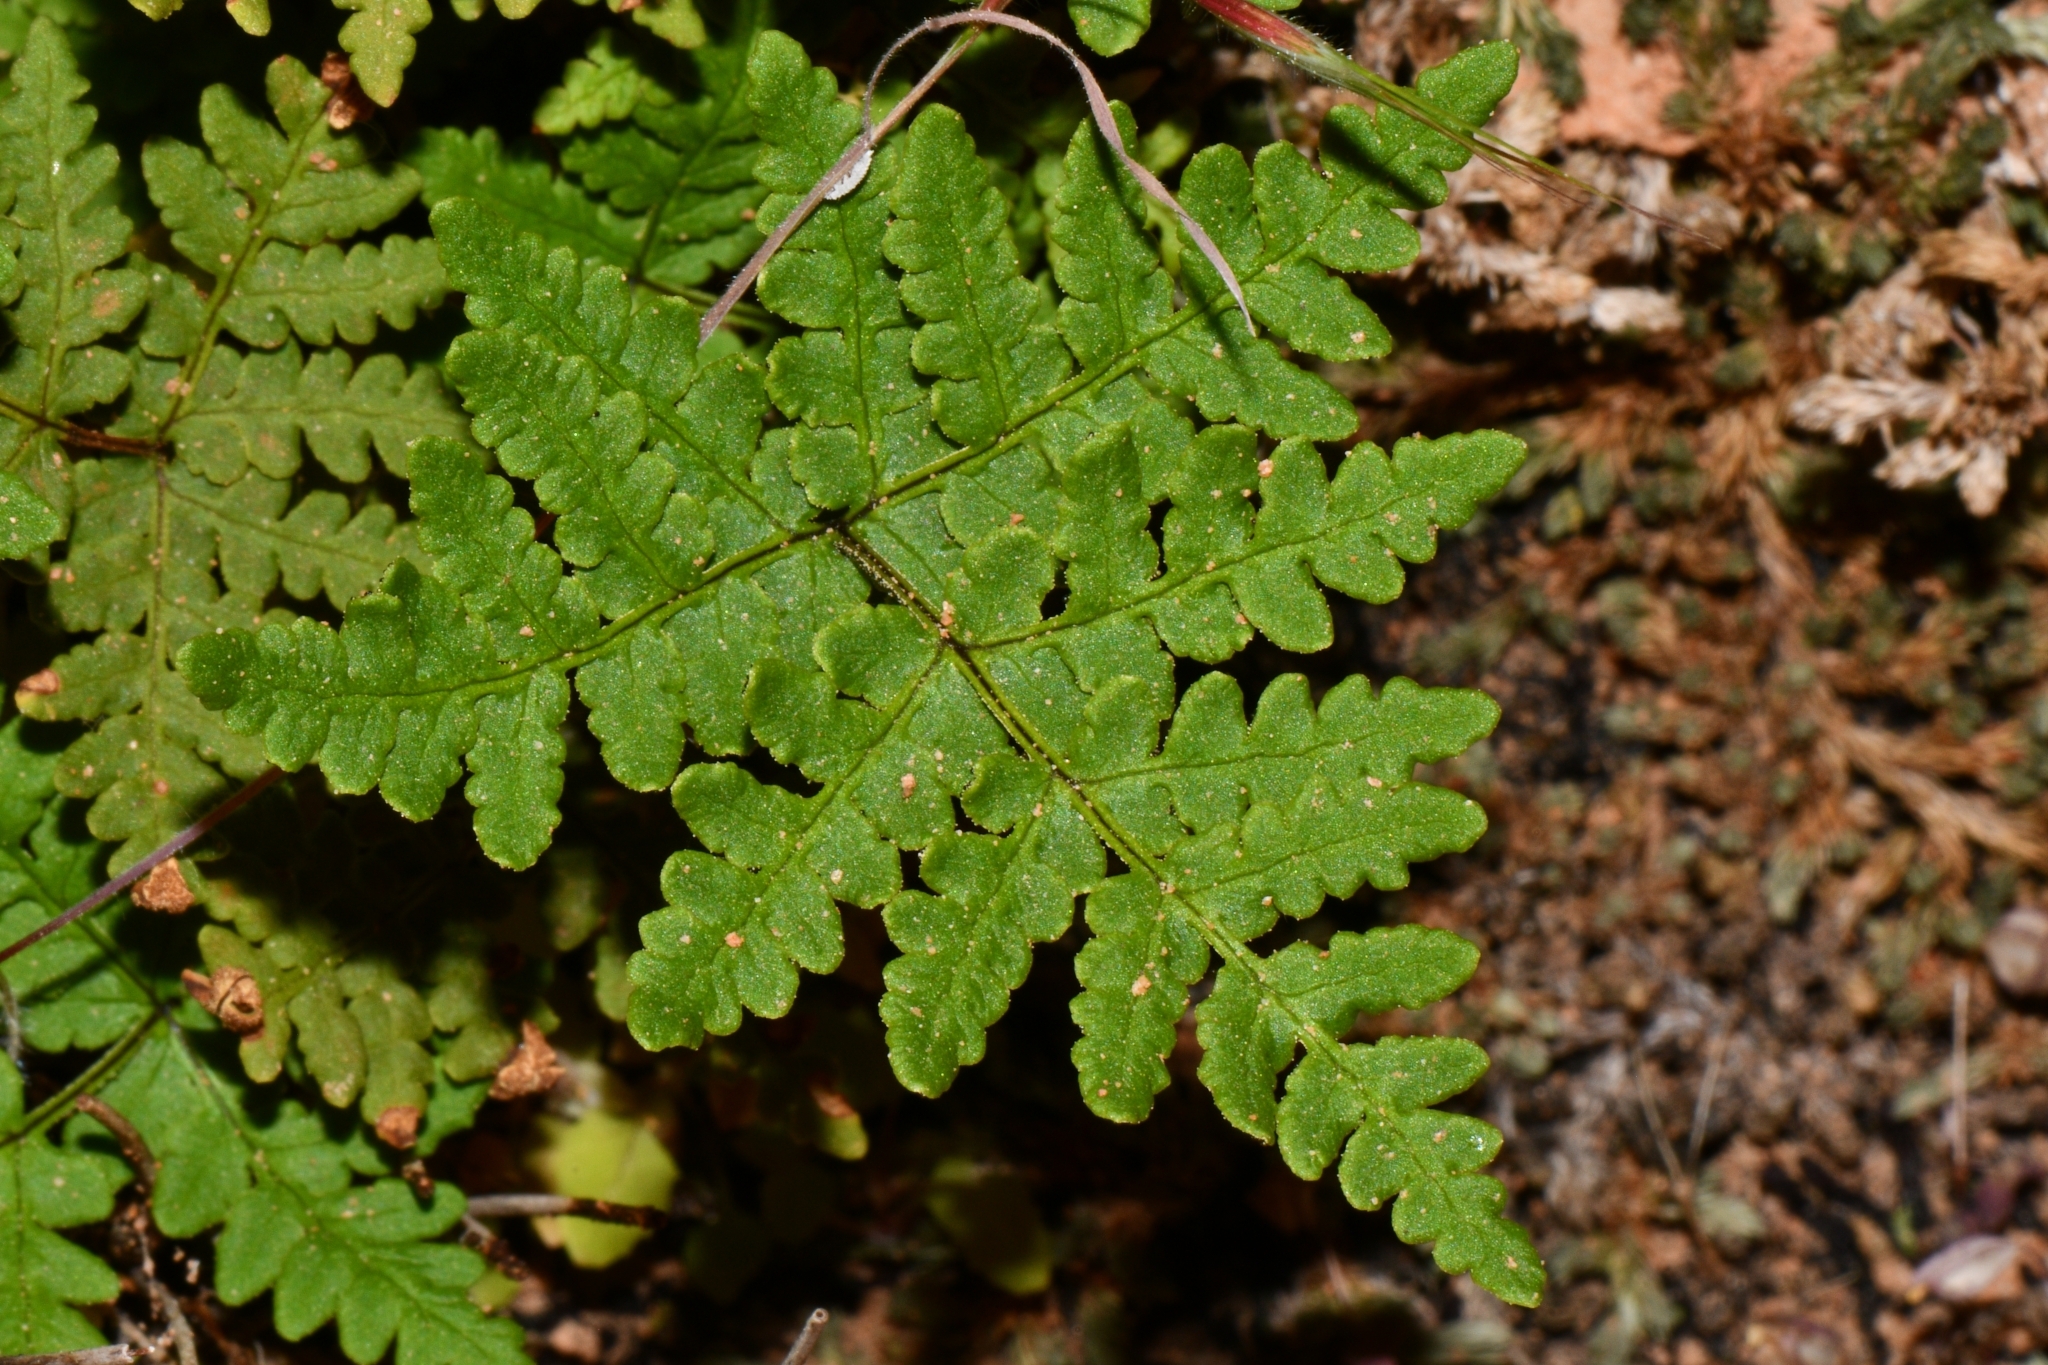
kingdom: Plantae
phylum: Tracheophyta
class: Polypodiopsida
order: Polypodiales
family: Pteridaceae
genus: Pentagramma
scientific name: Pentagramma triangularis
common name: Gold fern
